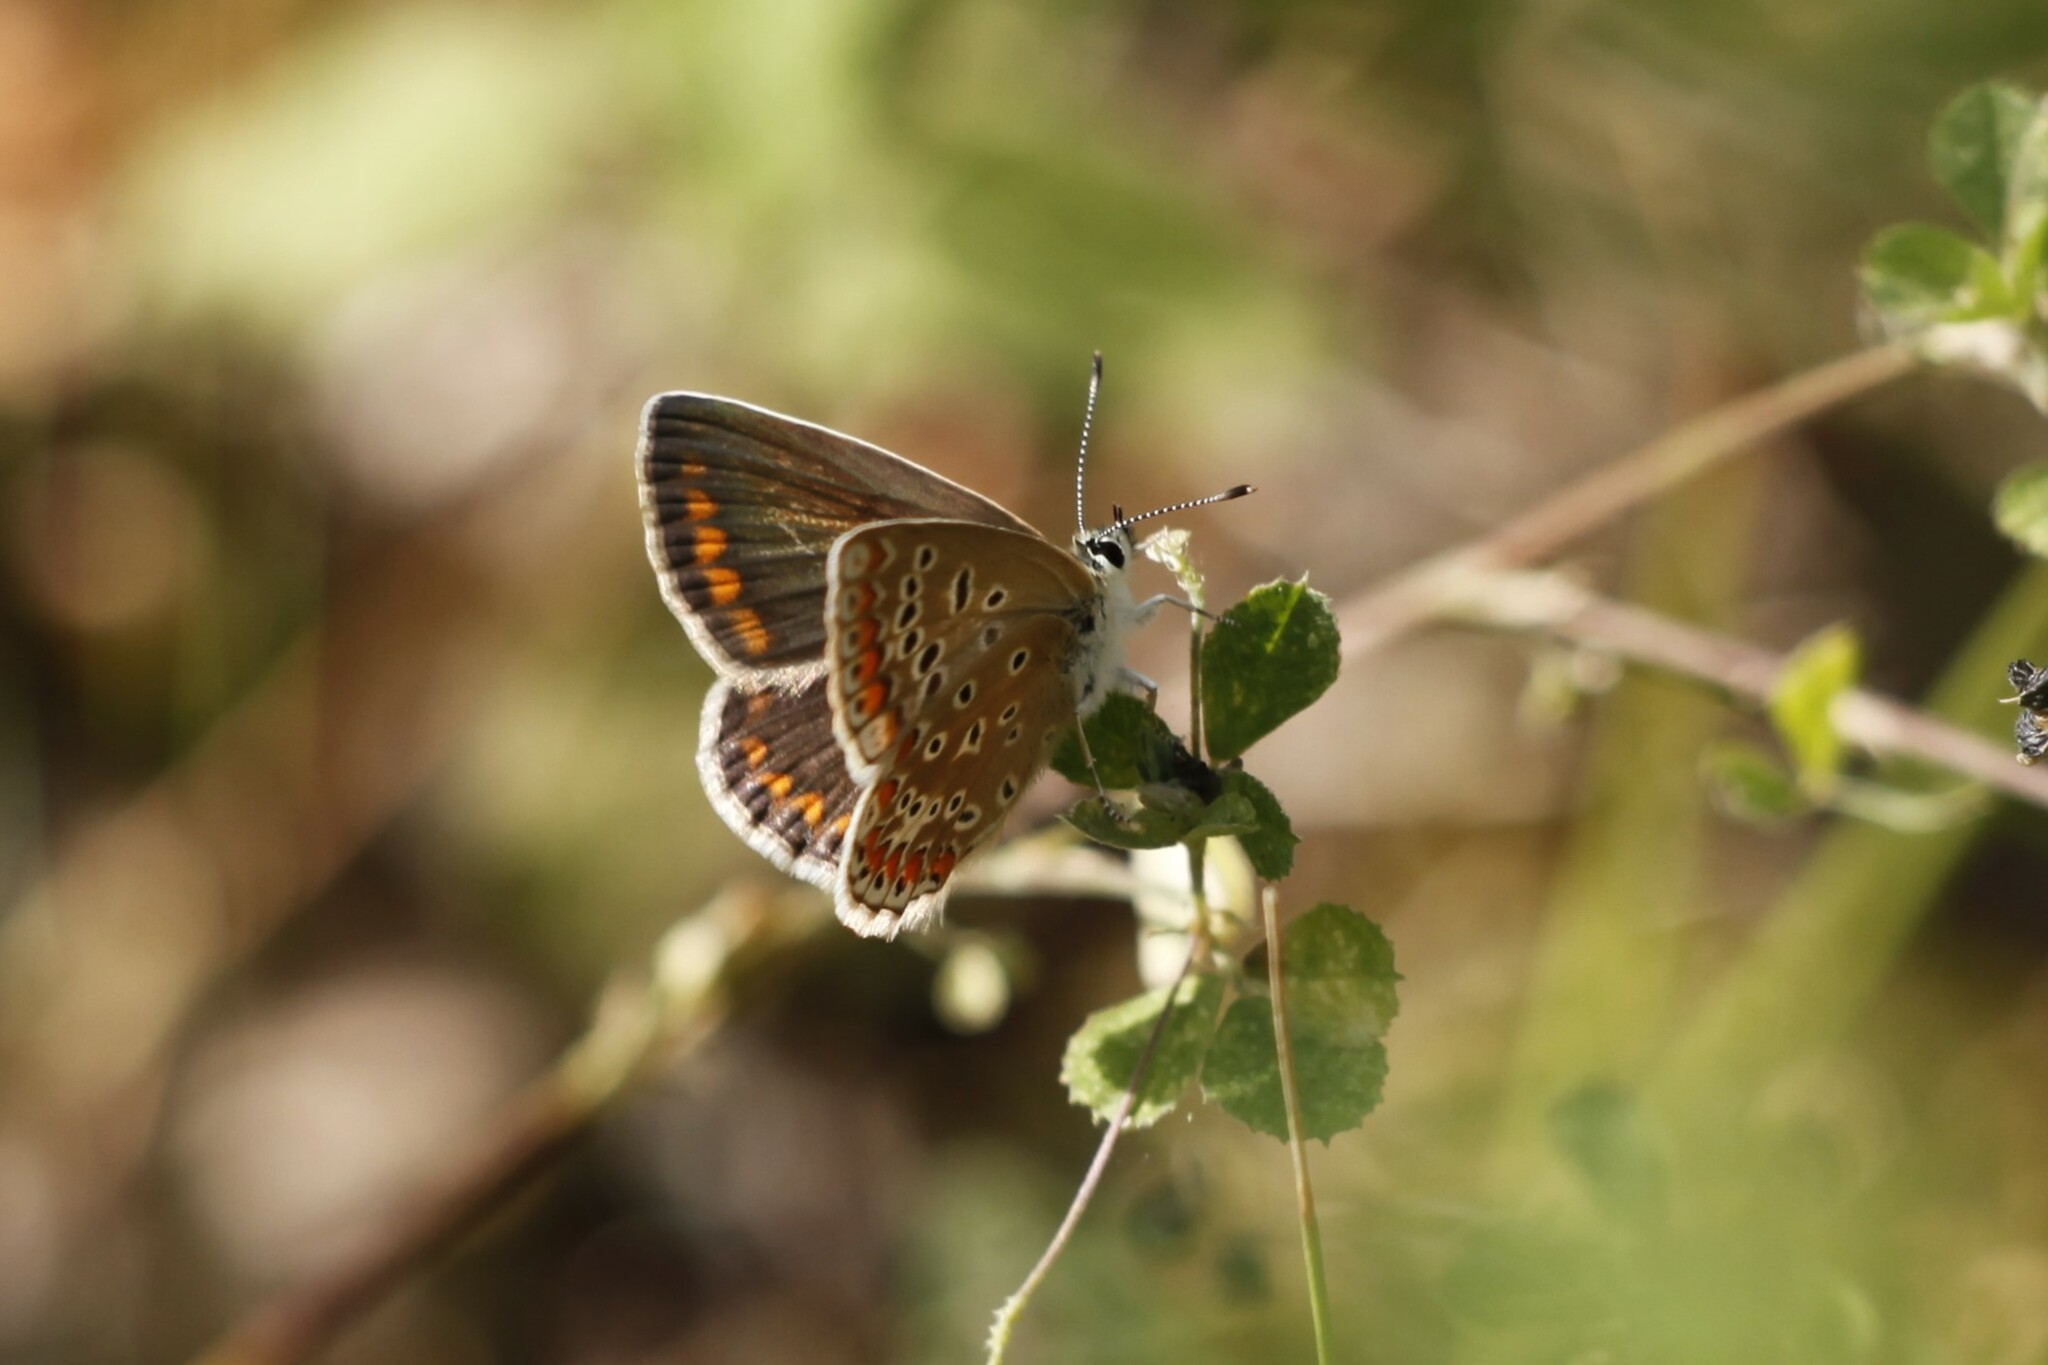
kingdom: Animalia
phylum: Arthropoda
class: Insecta
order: Lepidoptera
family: Lycaenidae
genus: Polyommatus
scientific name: Polyommatus icarus
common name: Common blue
